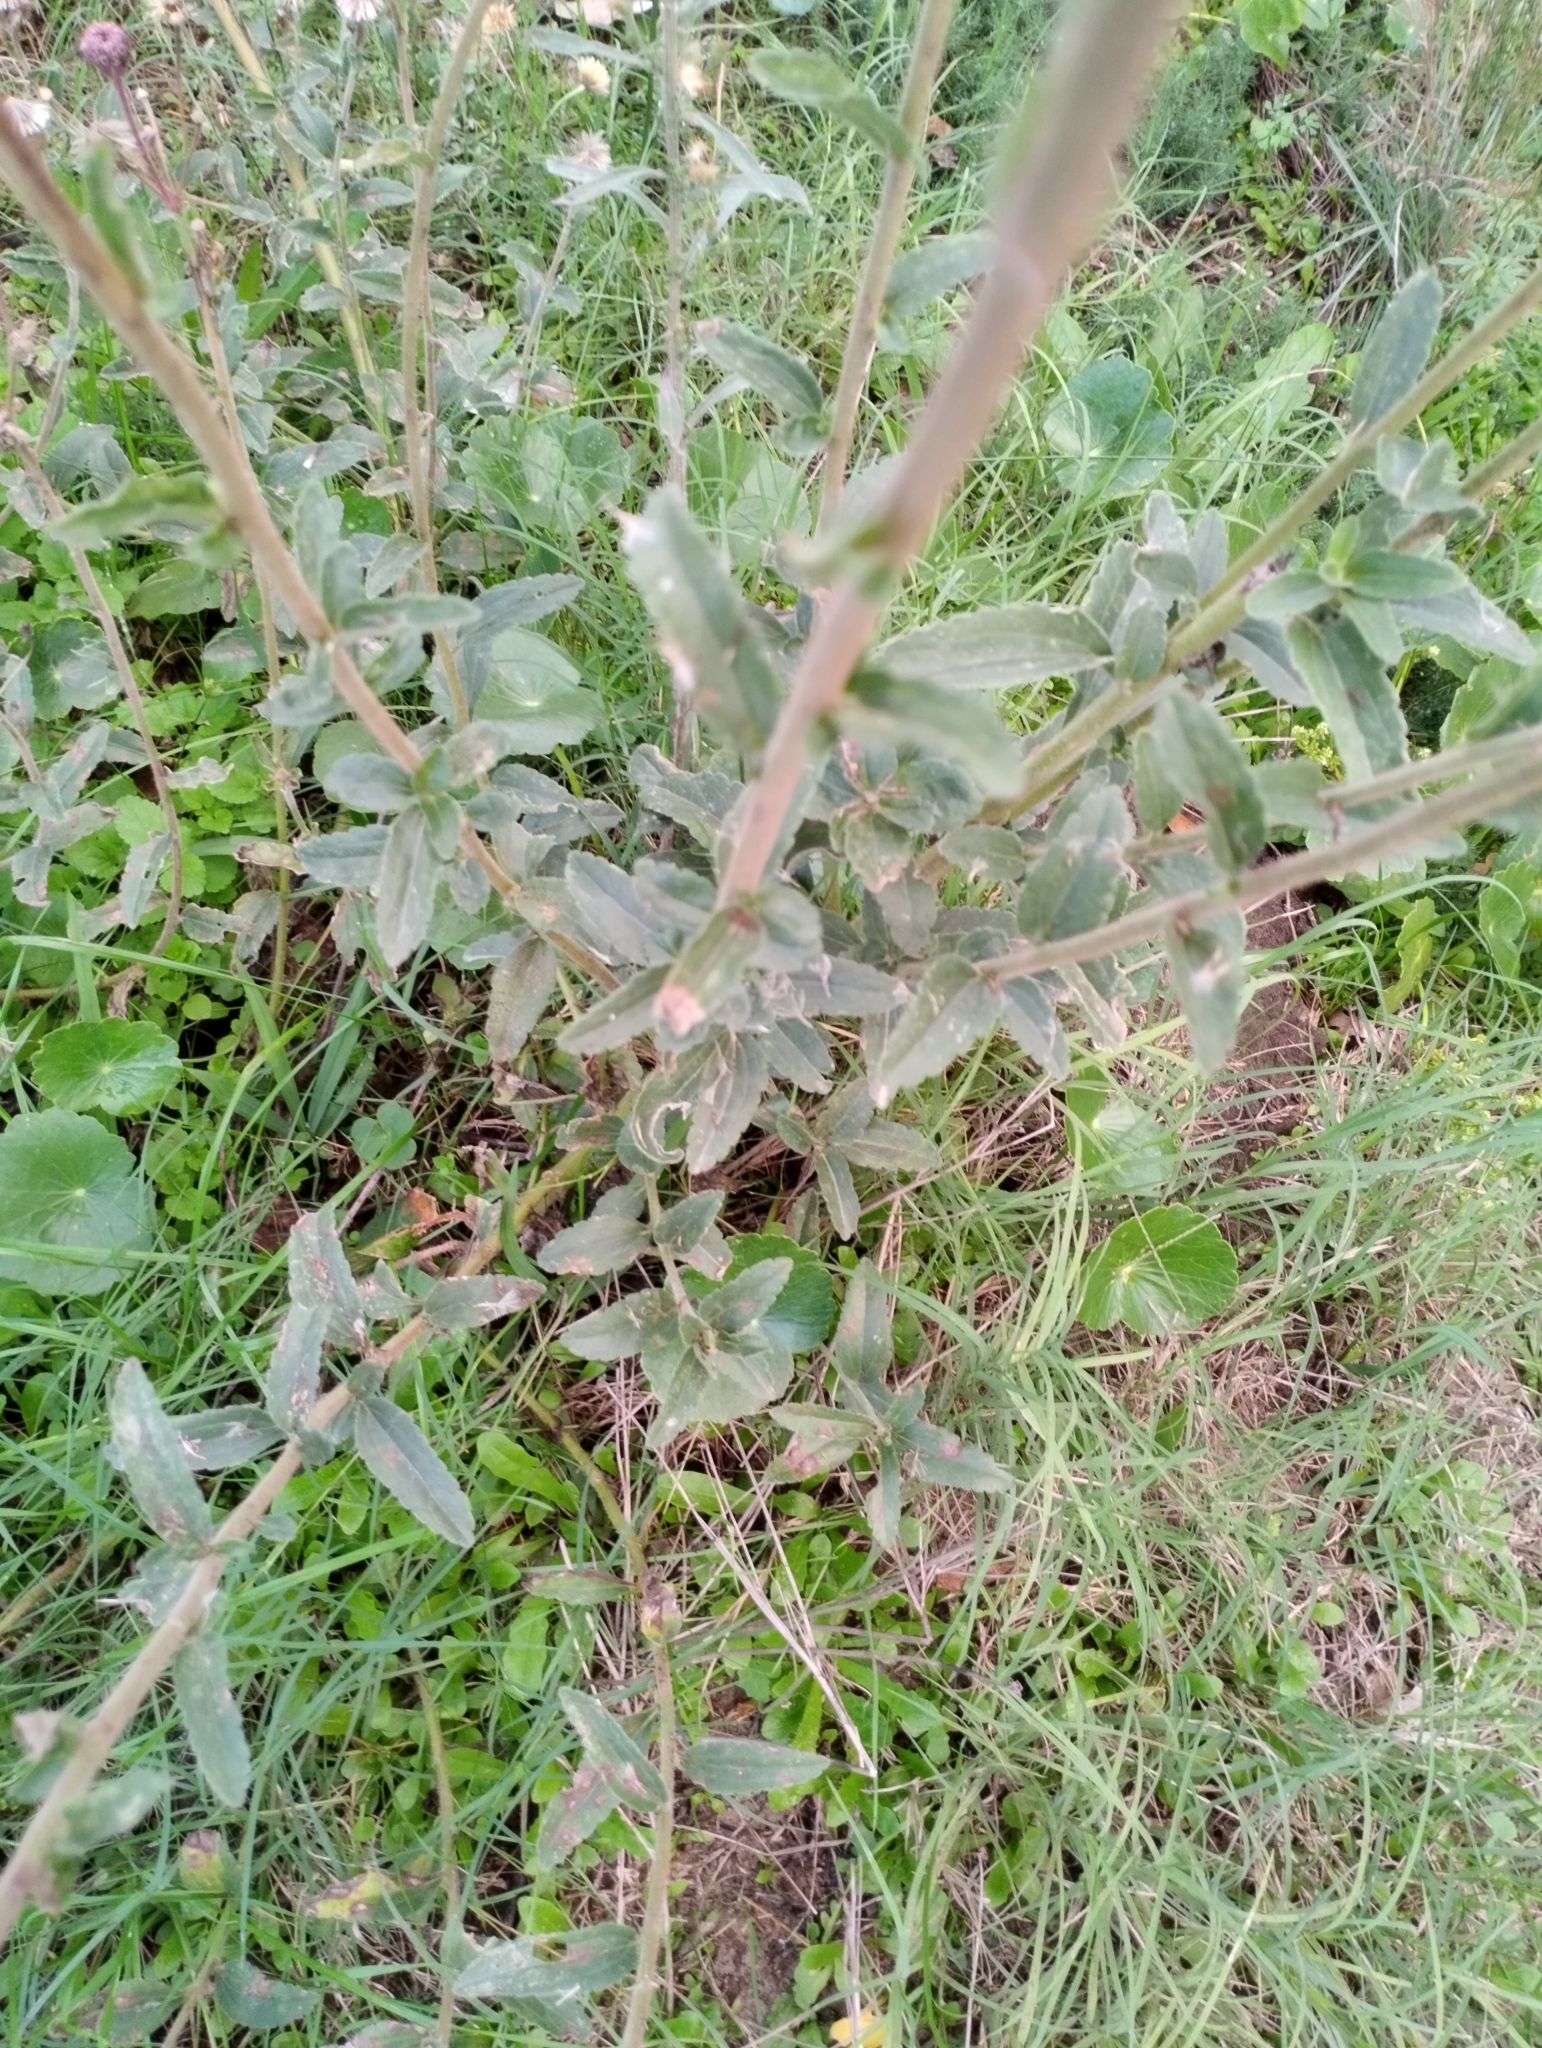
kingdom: Plantae
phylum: Tracheophyta
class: Magnoliopsida
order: Asterales
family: Asteraceae
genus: Campuloclinium
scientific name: Campuloclinium macrocephalum
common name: Pompomweed
